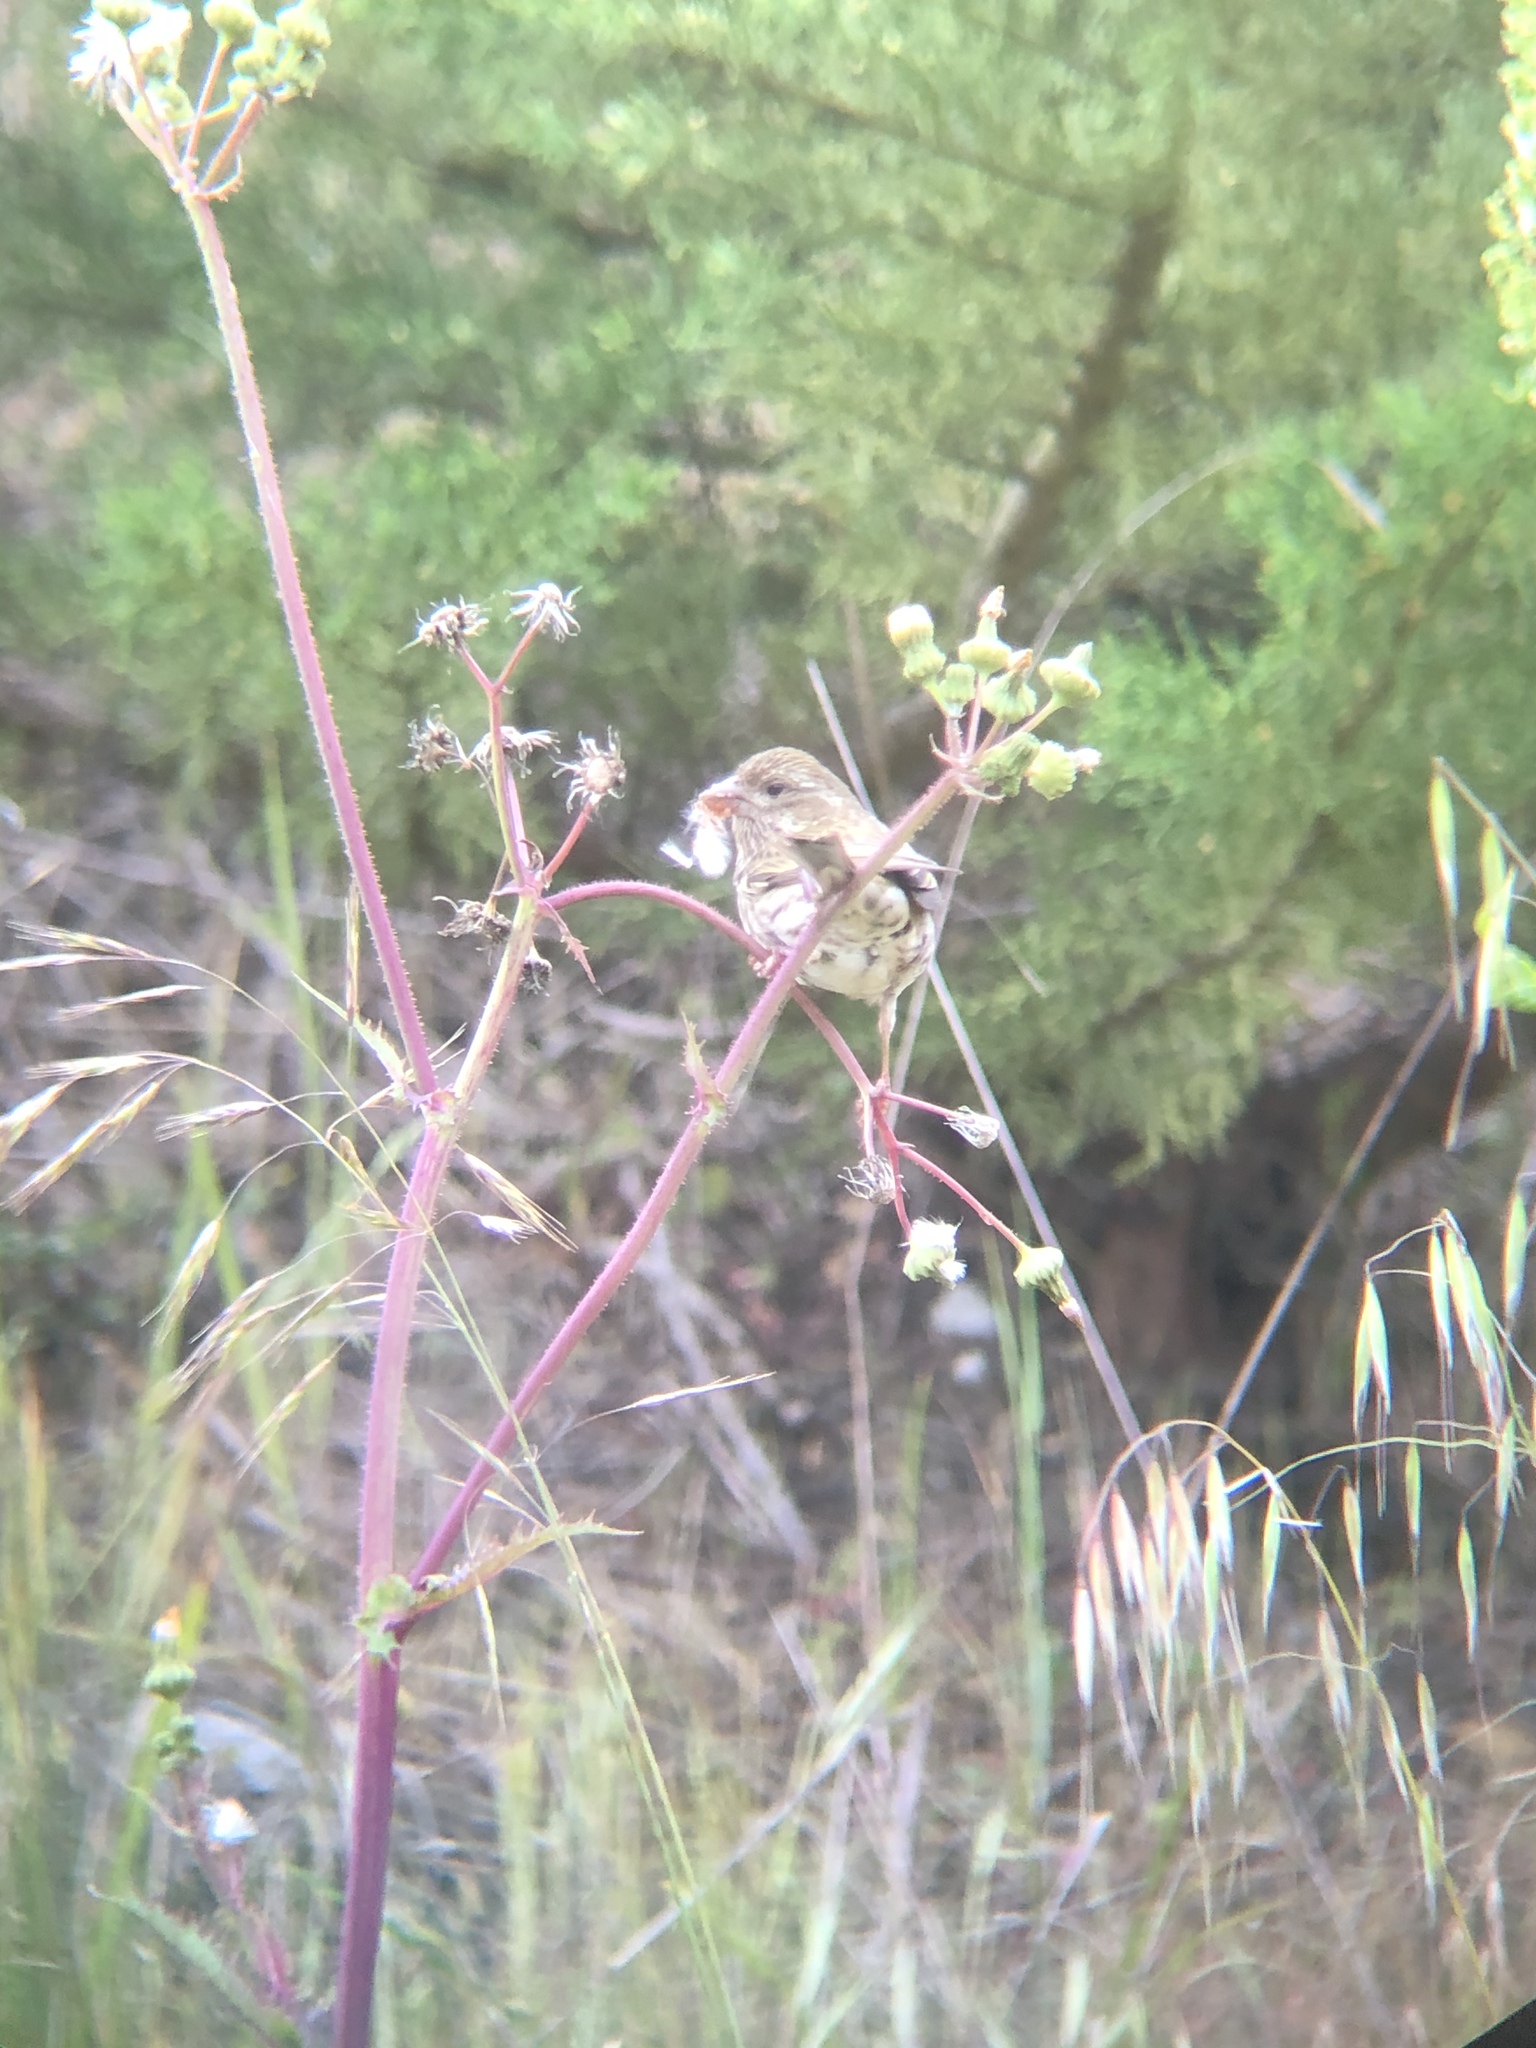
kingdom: Animalia
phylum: Chordata
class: Aves
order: Passeriformes
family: Fringillidae
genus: Haemorhous
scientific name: Haemorhous purpureus
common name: Purple finch
